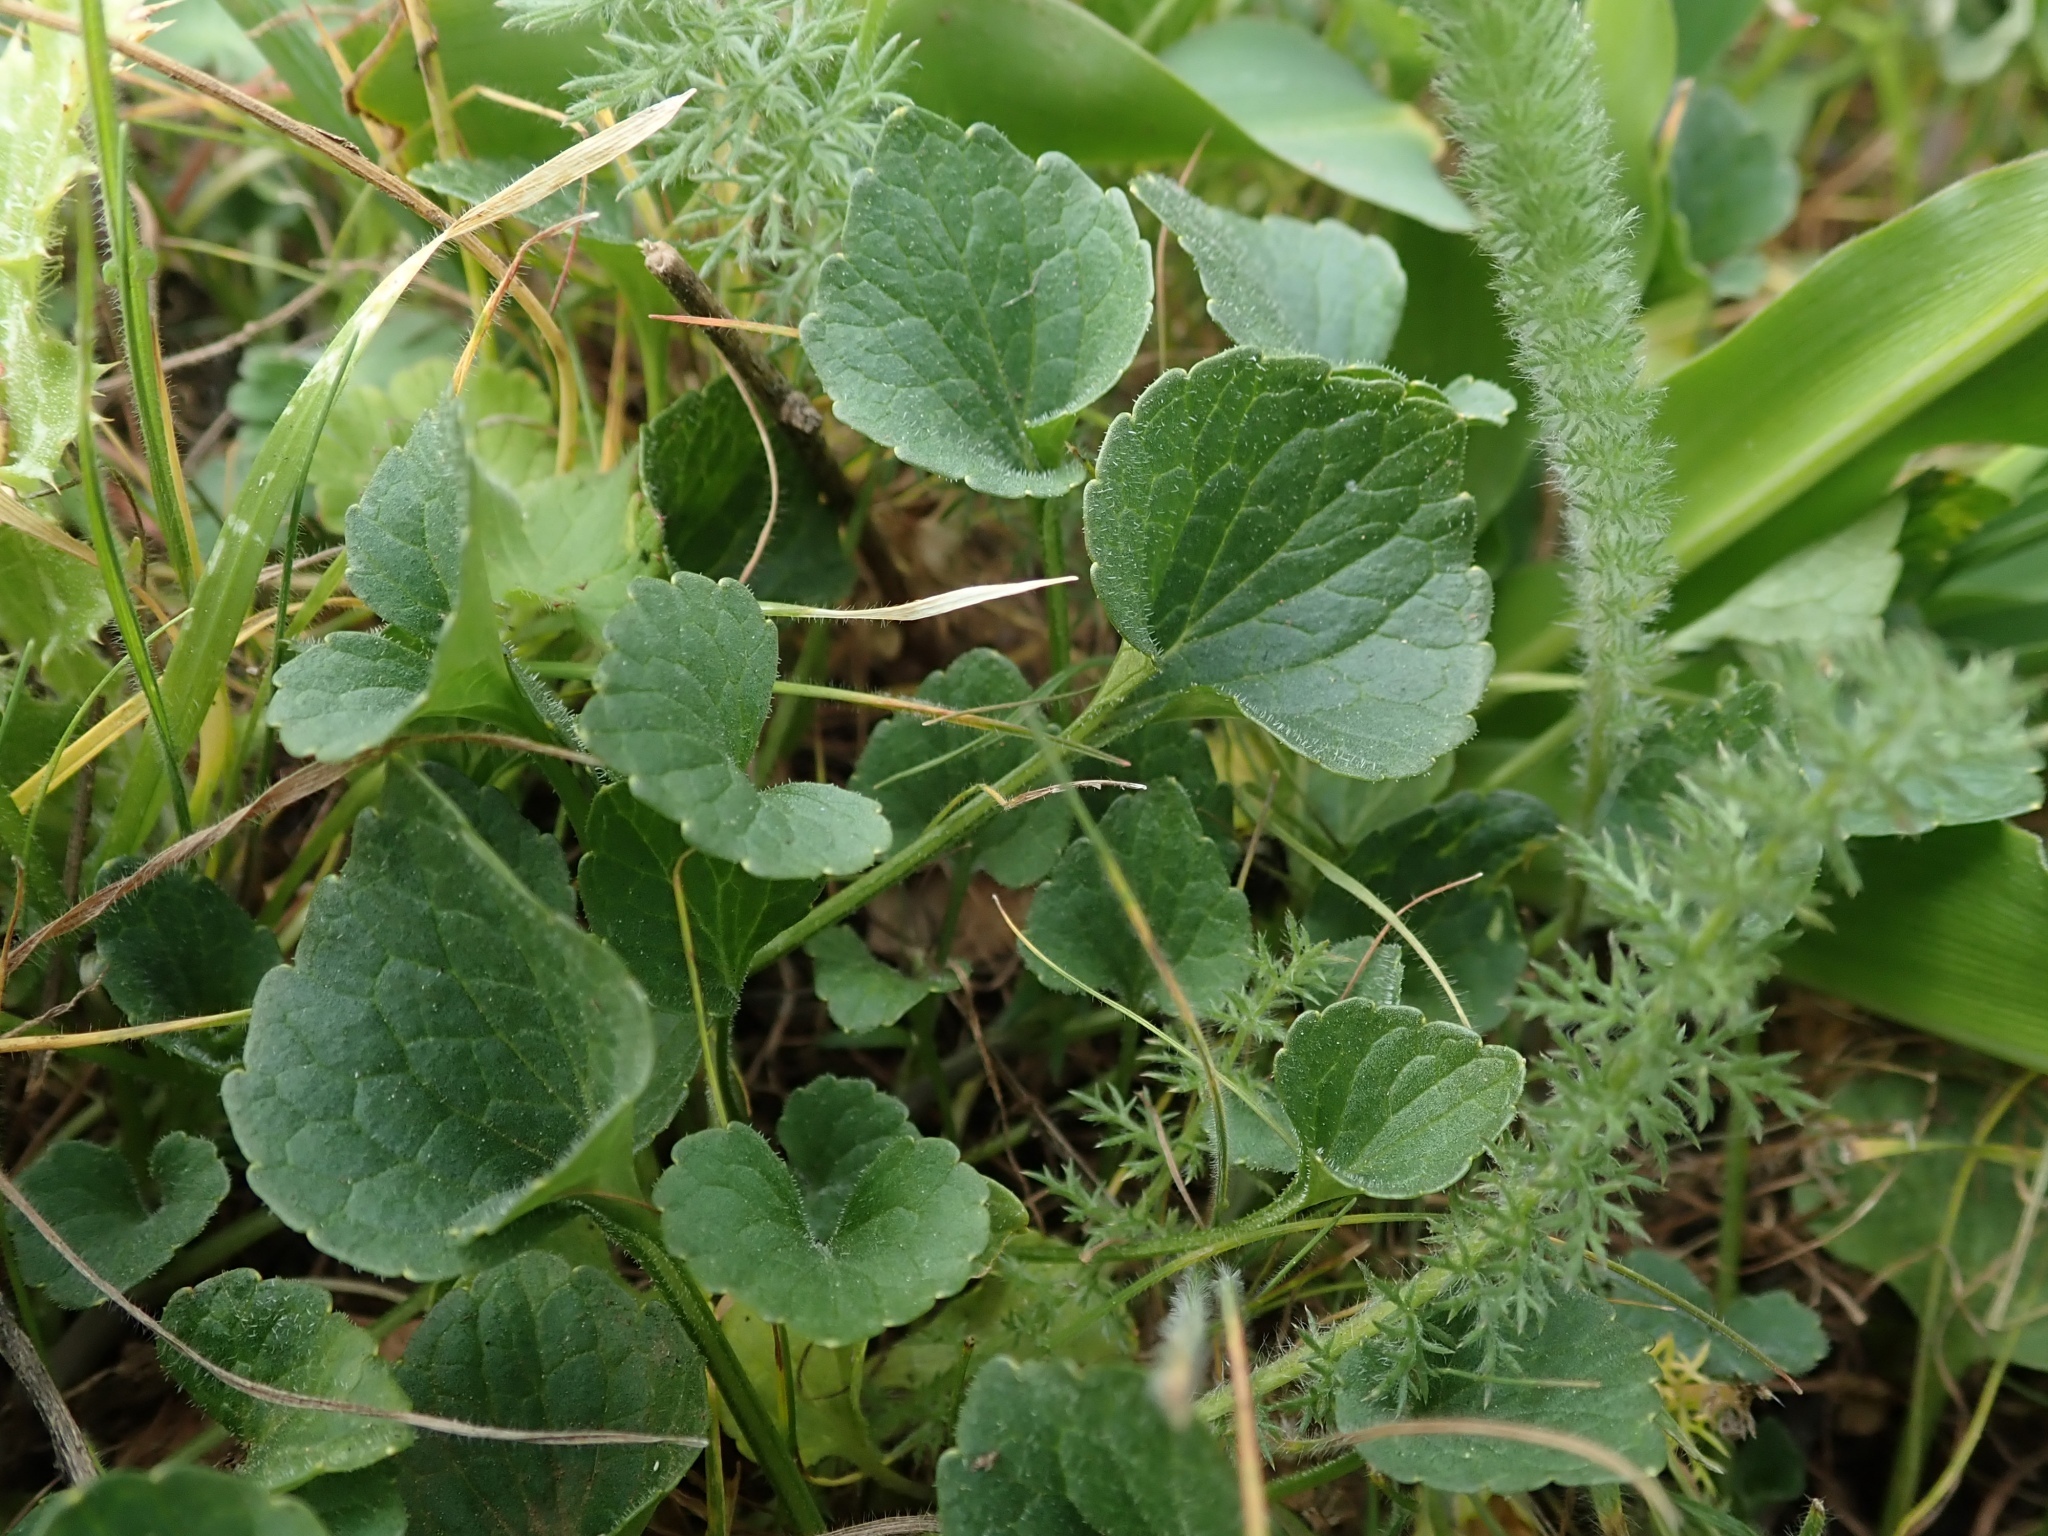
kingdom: Plantae
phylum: Tracheophyta
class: Magnoliopsida
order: Malpighiales
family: Violaceae
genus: Viola
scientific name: Viola pedunculata
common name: California golden violet
